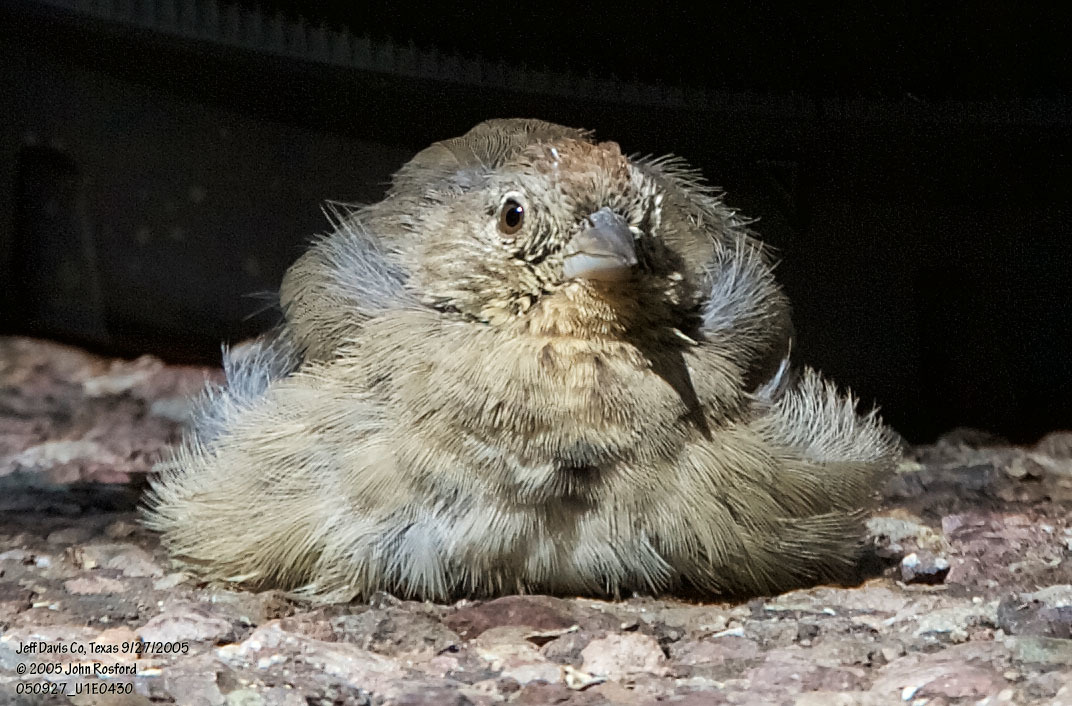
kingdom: Animalia
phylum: Chordata
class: Aves
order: Passeriformes
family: Passerellidae
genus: Melozone
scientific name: Melozone fusca
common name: Canyon towhee
